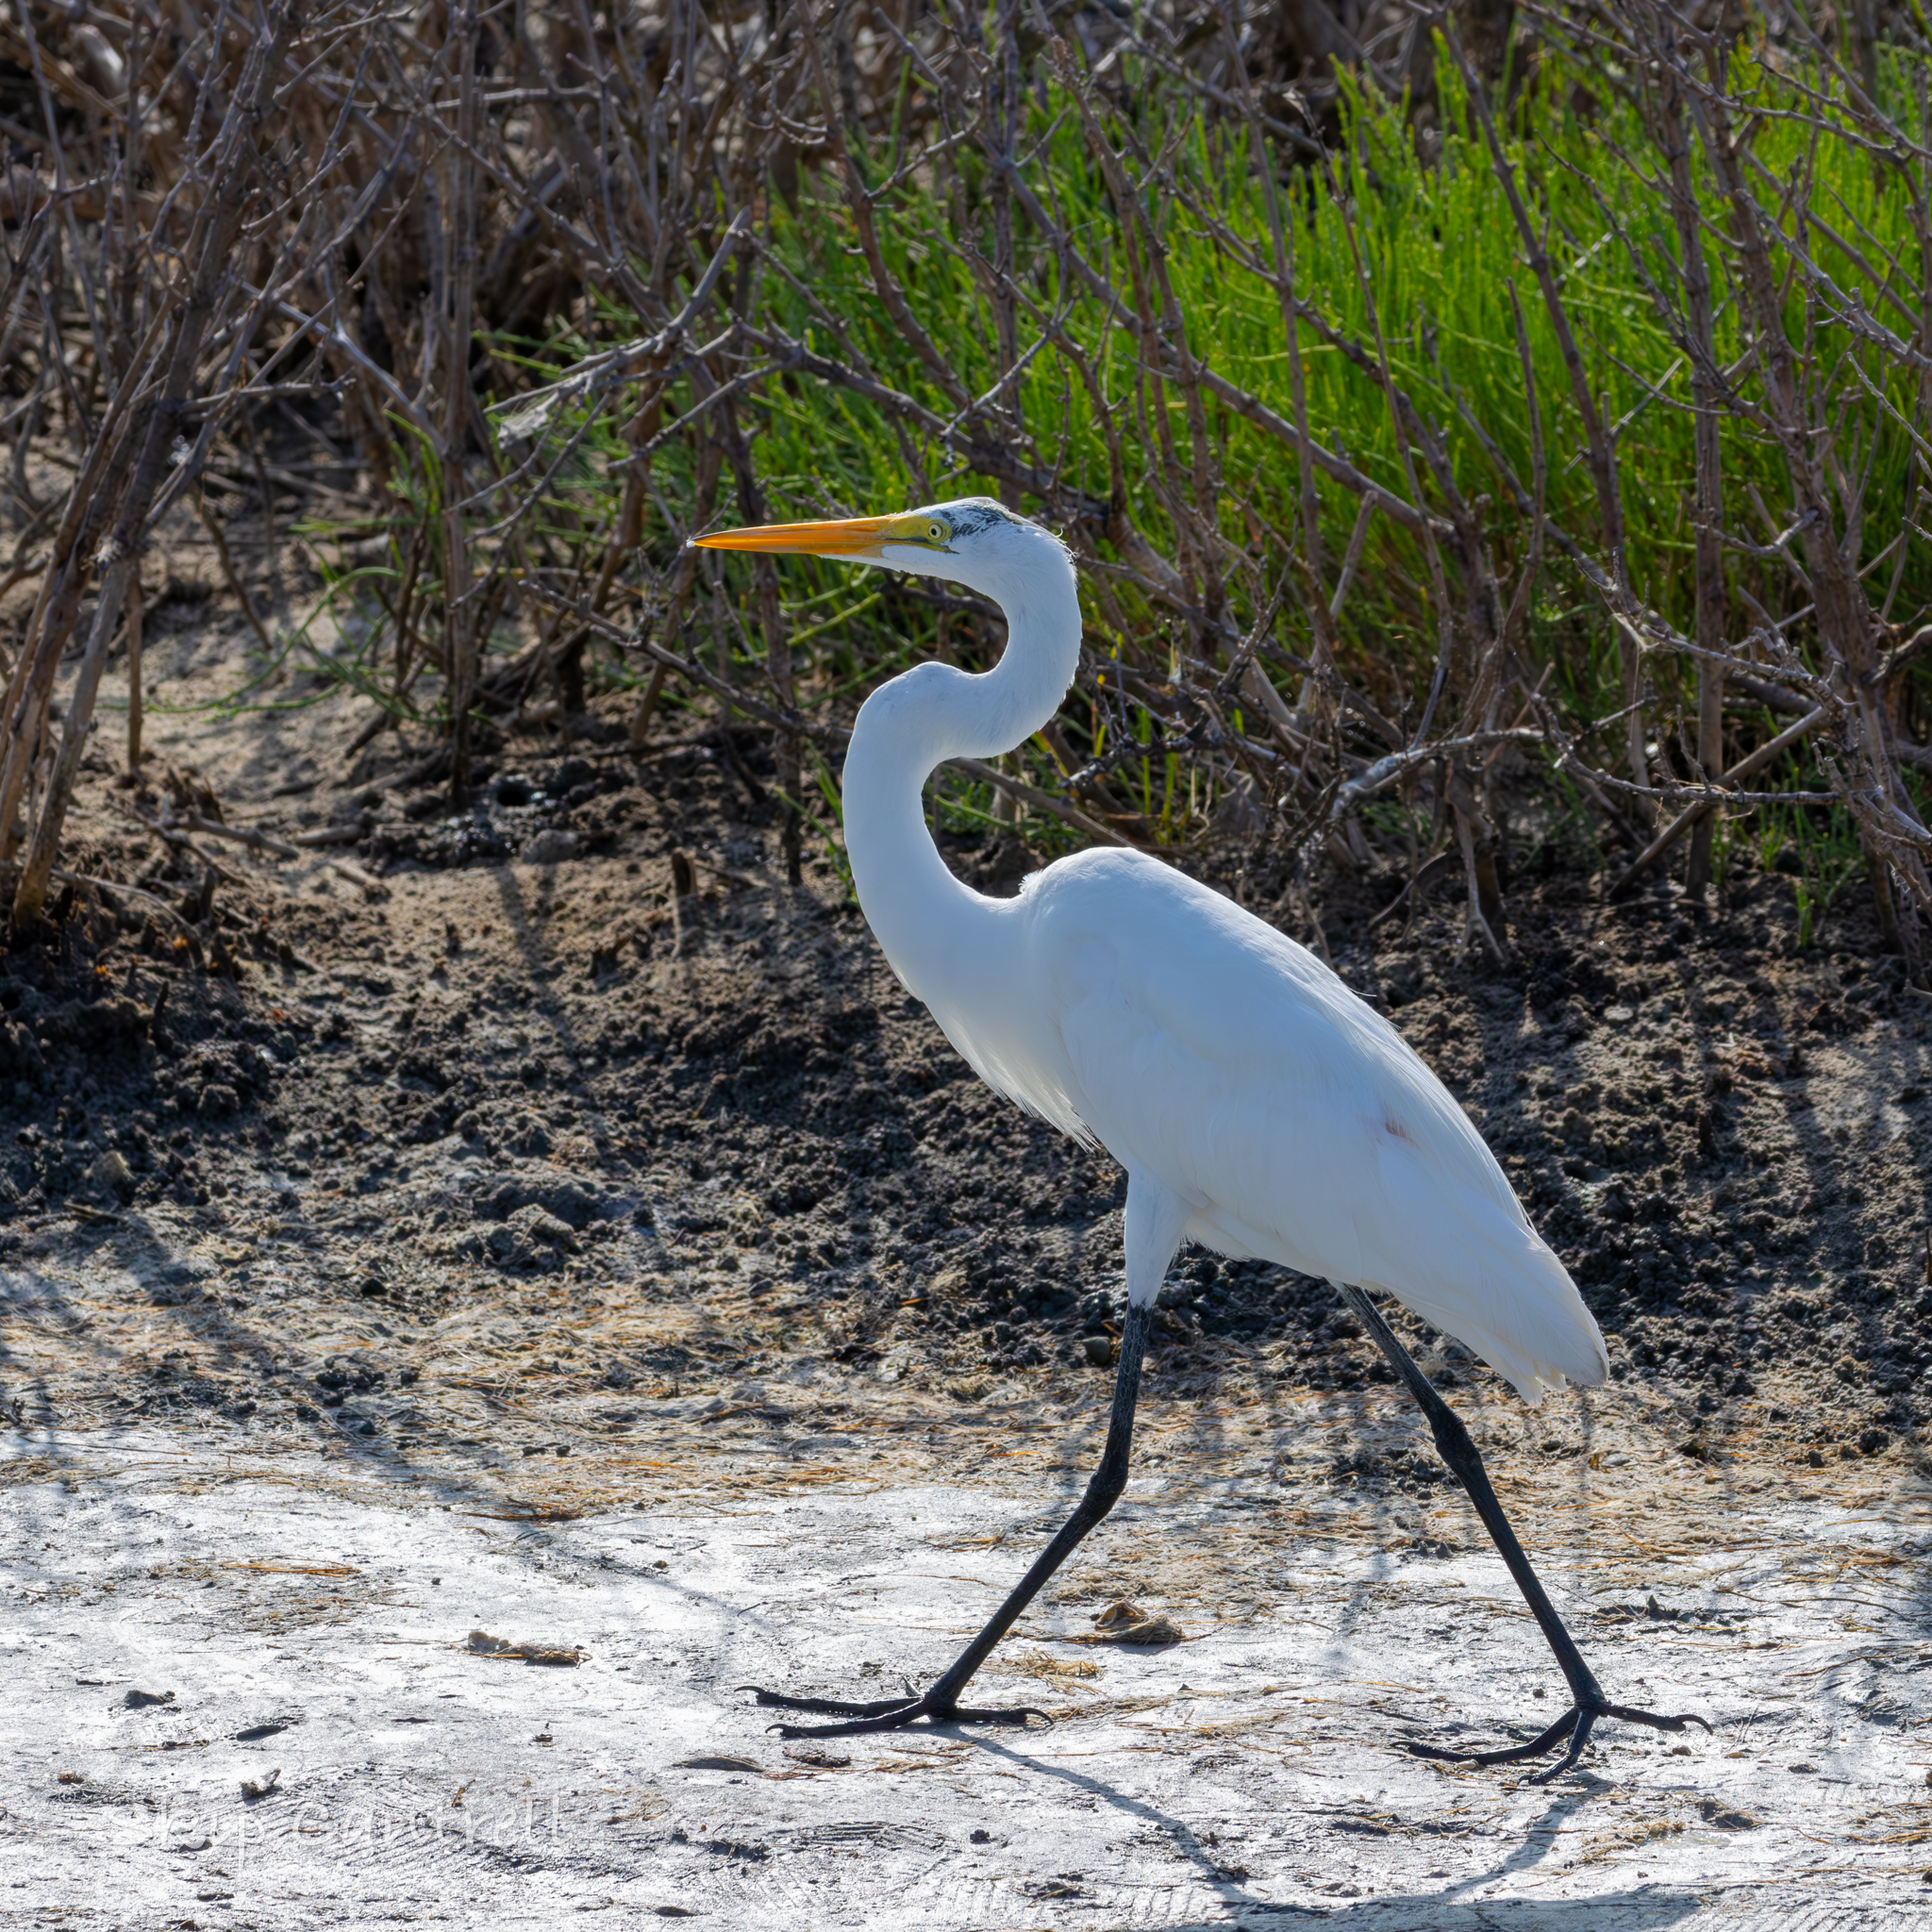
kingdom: Animalia
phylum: Chordata
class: Aves
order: Pelecaniformes
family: Ardeidae
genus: Ardea
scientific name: Ardea alba
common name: Great egret
